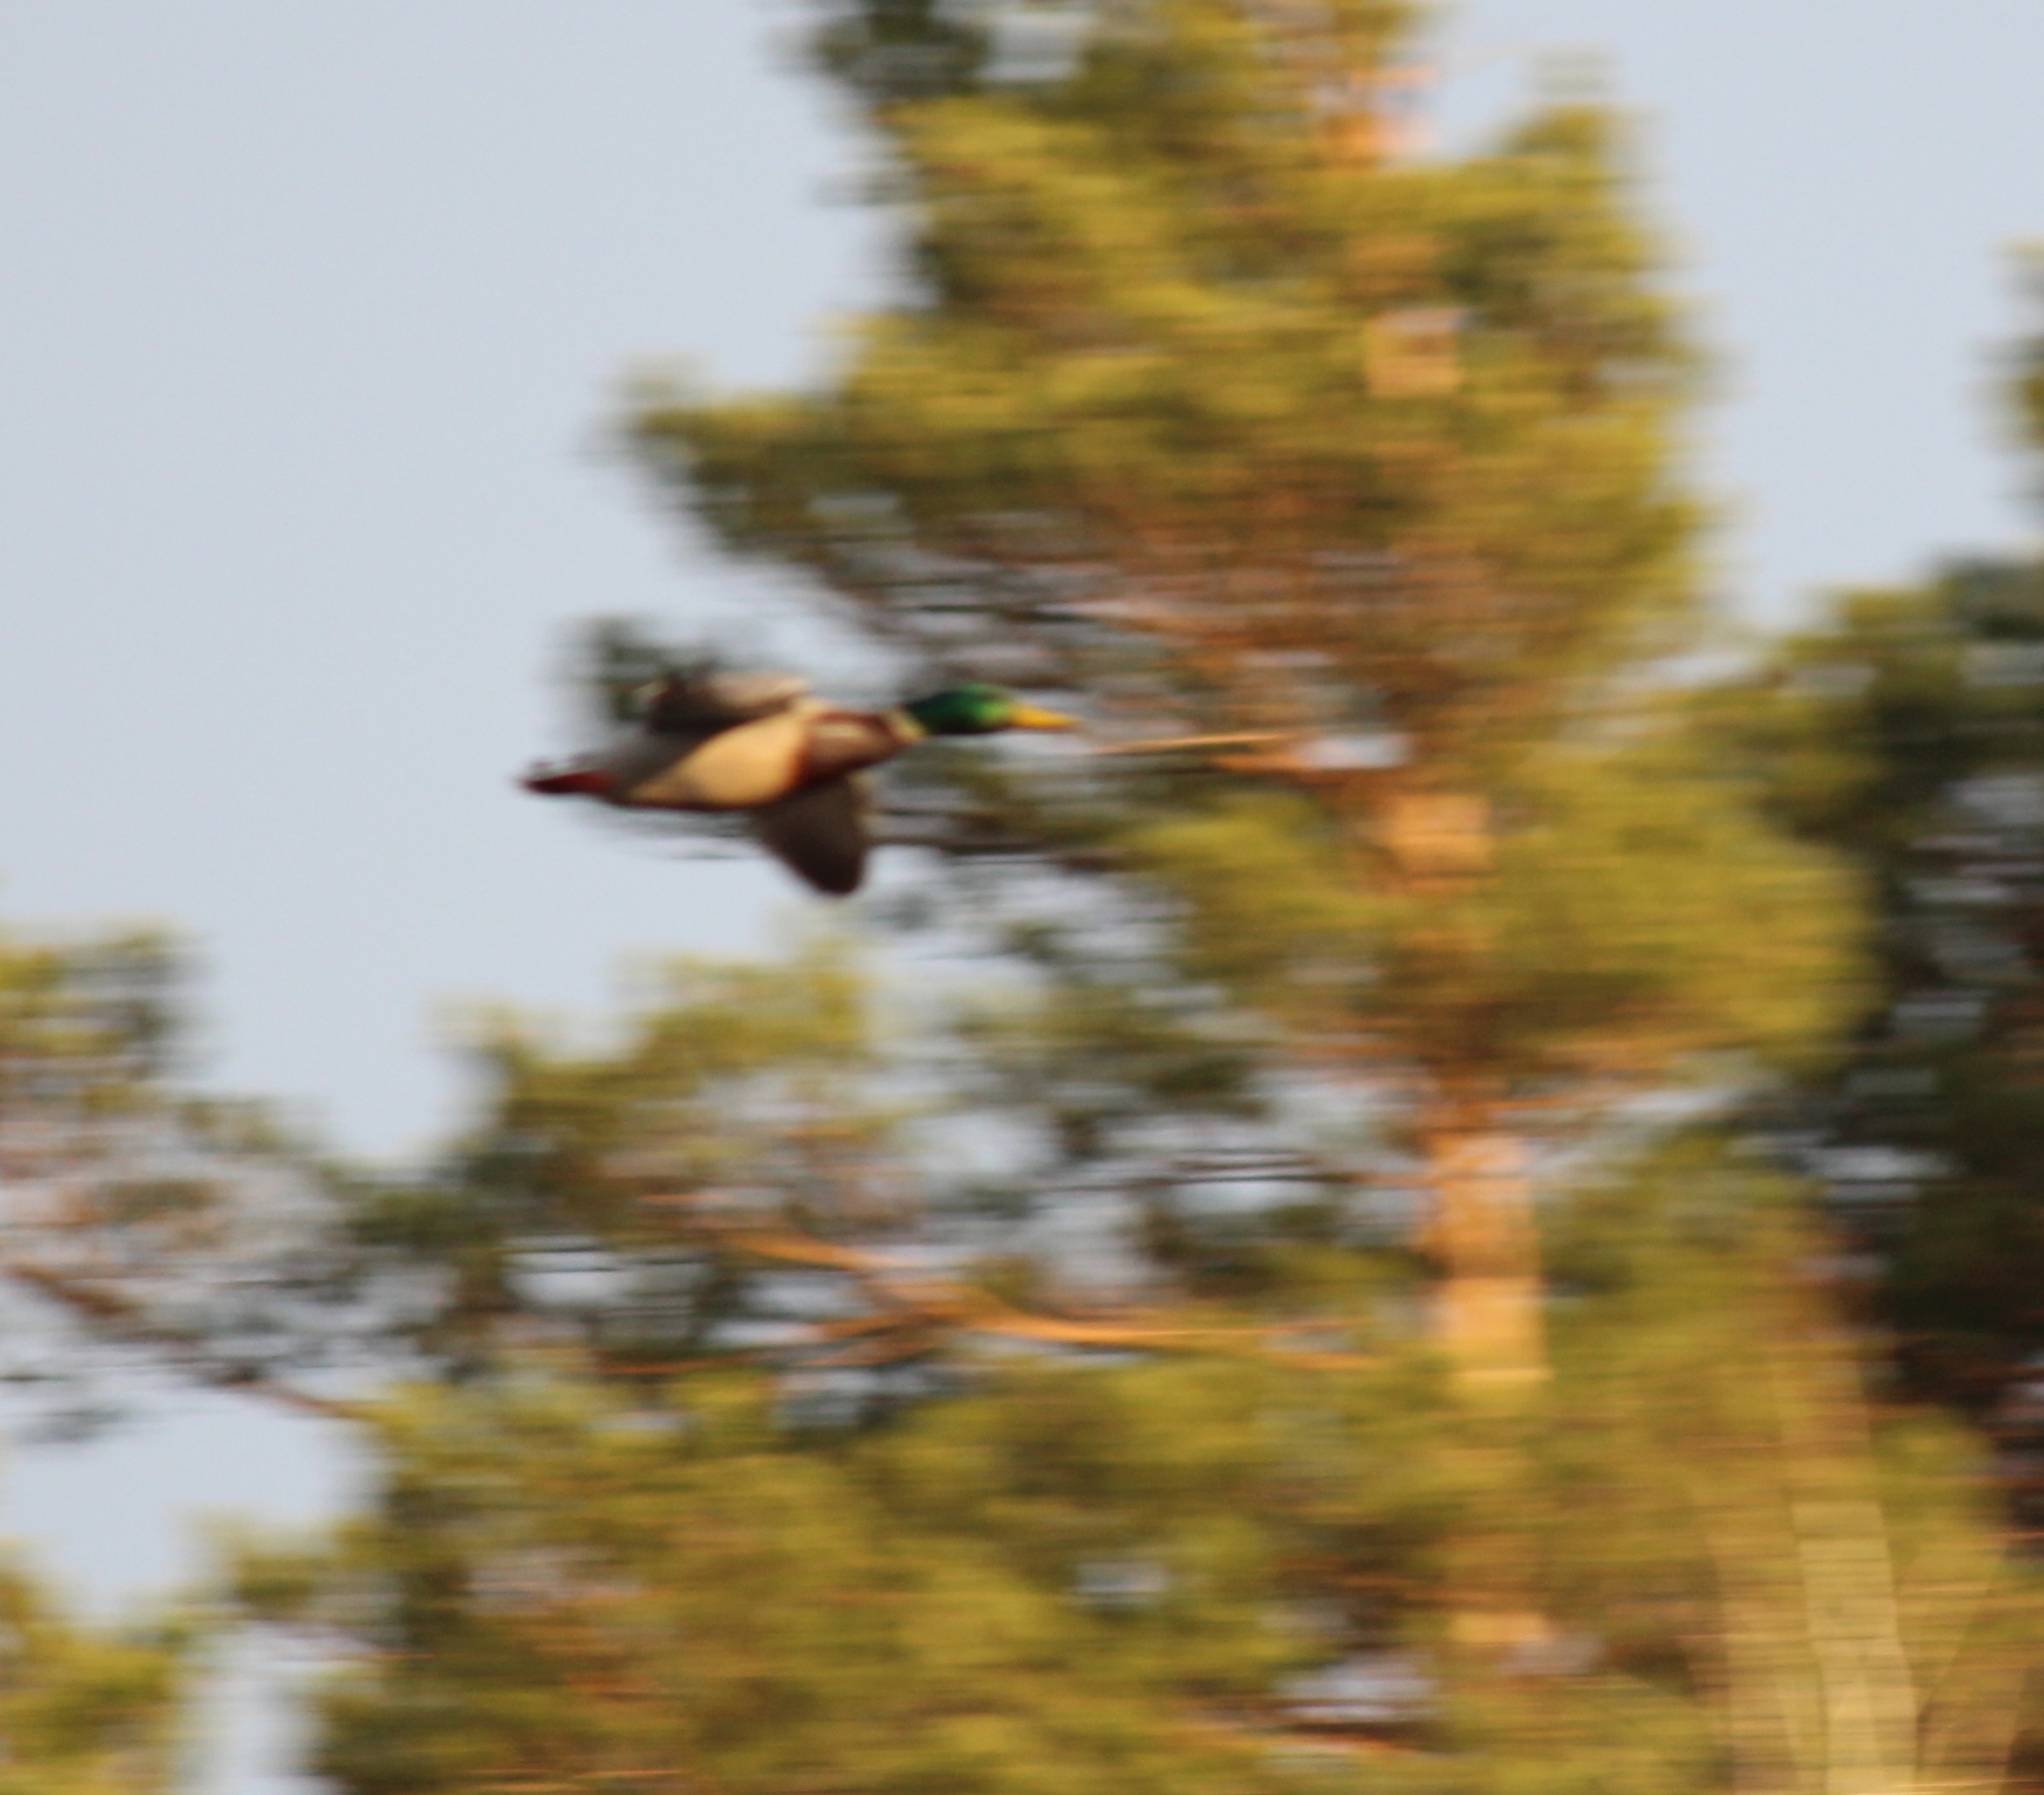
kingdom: Animalia
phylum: Chordata
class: Aves
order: Anseriformes
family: Anatidae
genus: Anas
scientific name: Anas platyrhynchos
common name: Mallard
